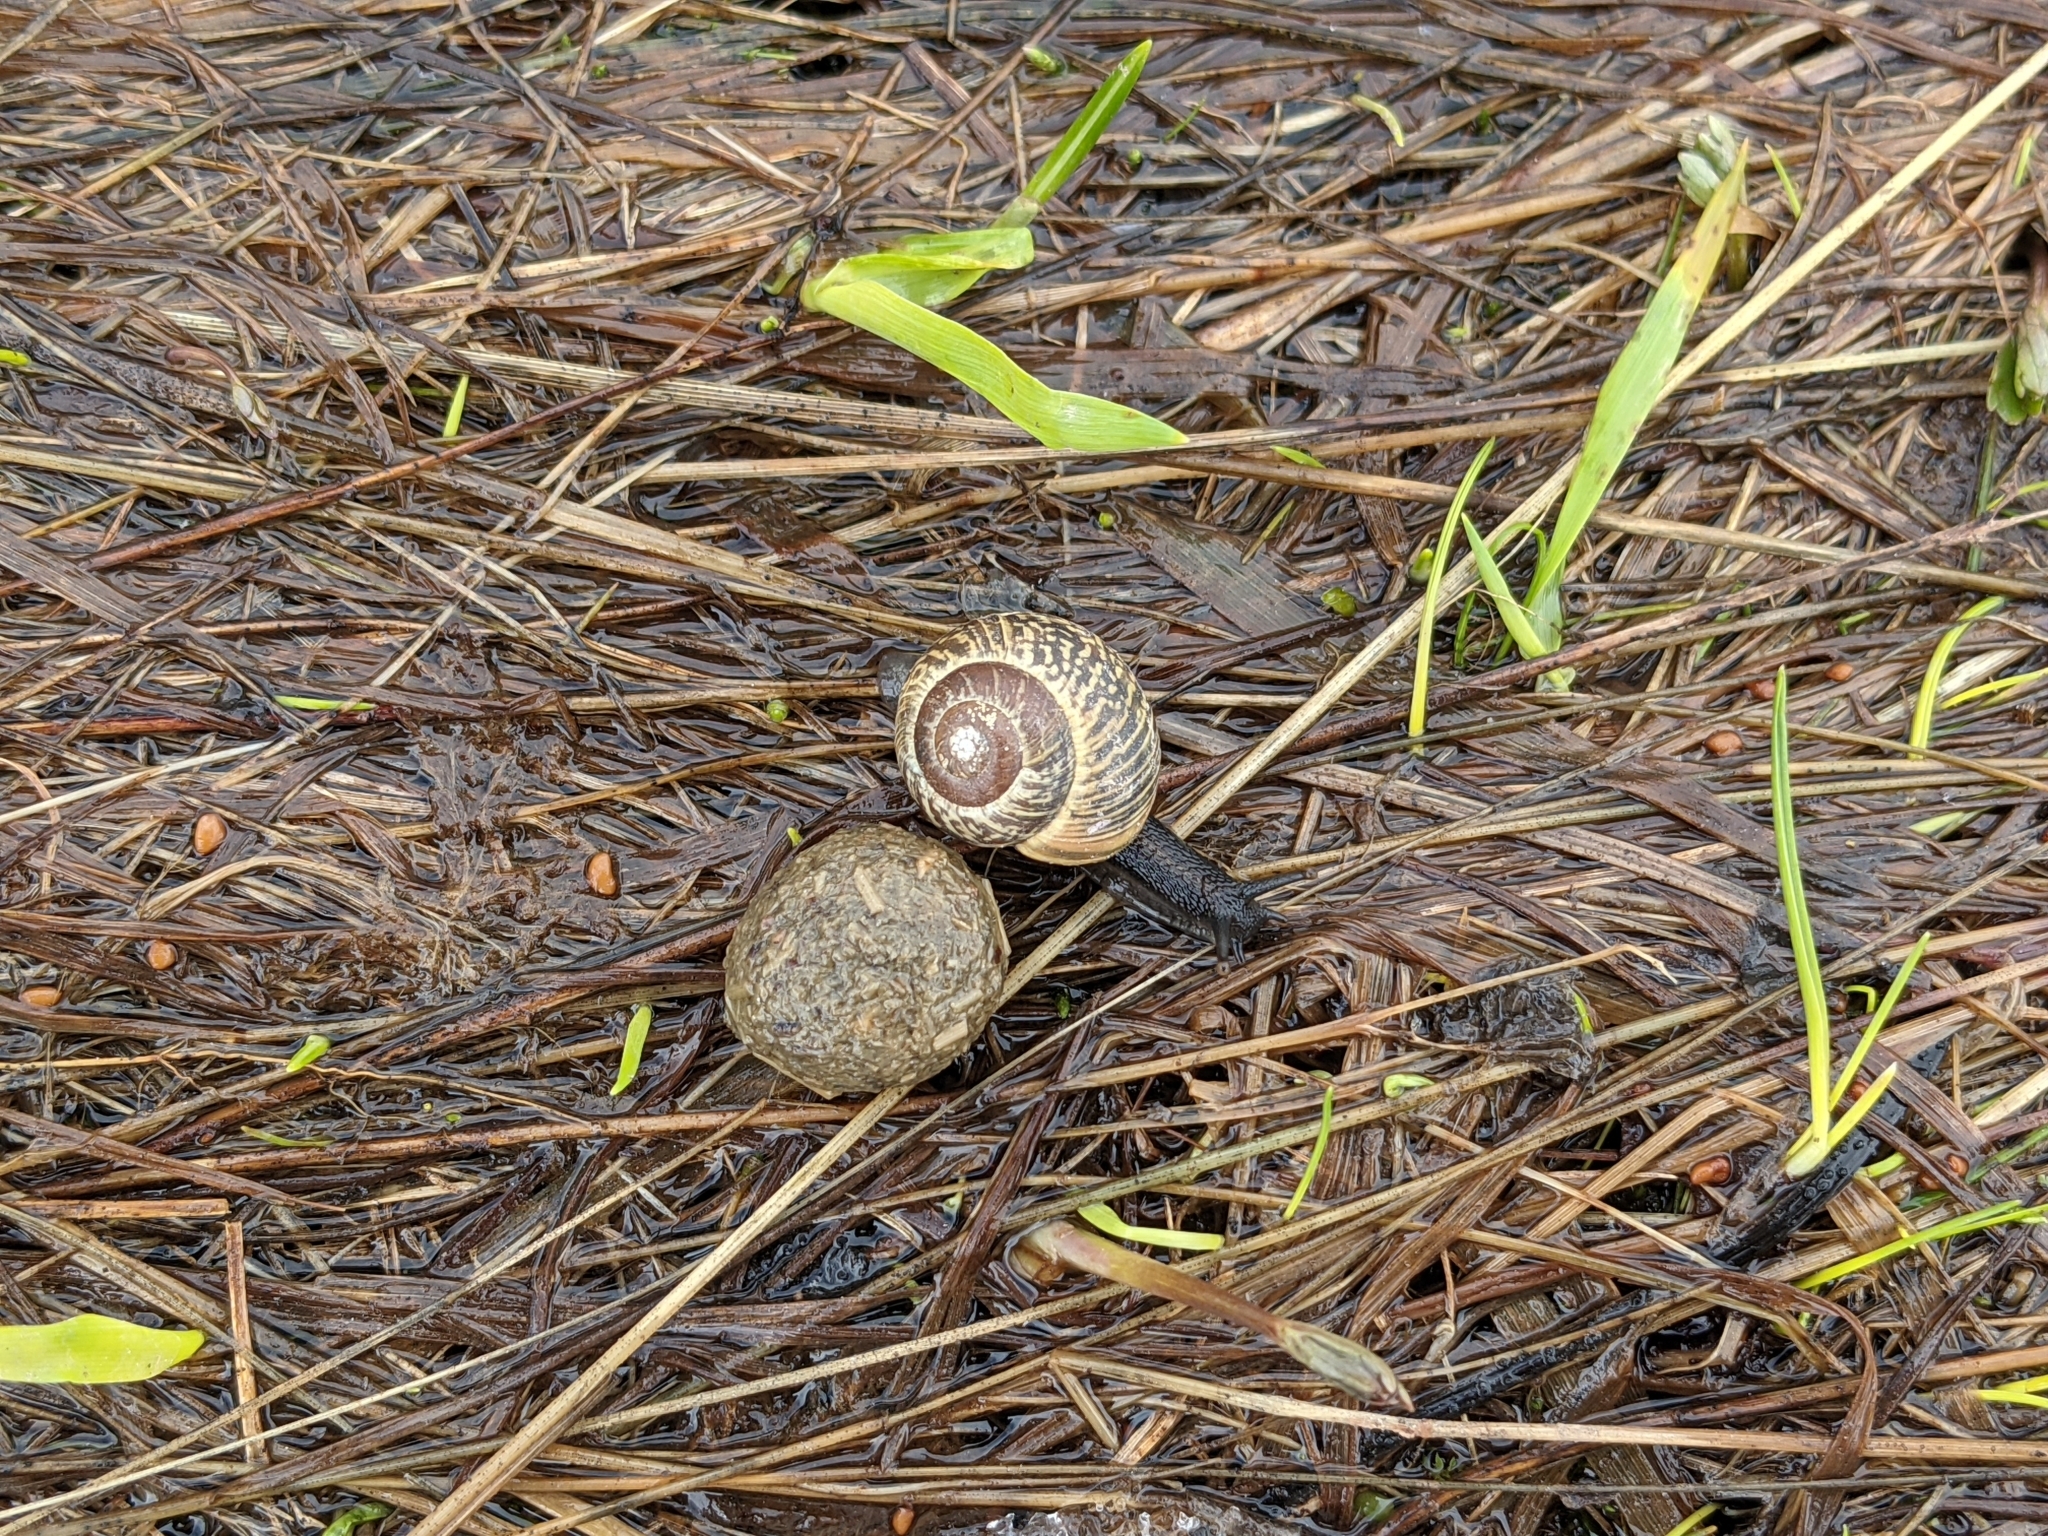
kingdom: Animalia
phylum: Mollusca
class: Gastropoda
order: Stylommatophora
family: Helicidae
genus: Arianta
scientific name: Arianta arbustorum
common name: Copse snail
